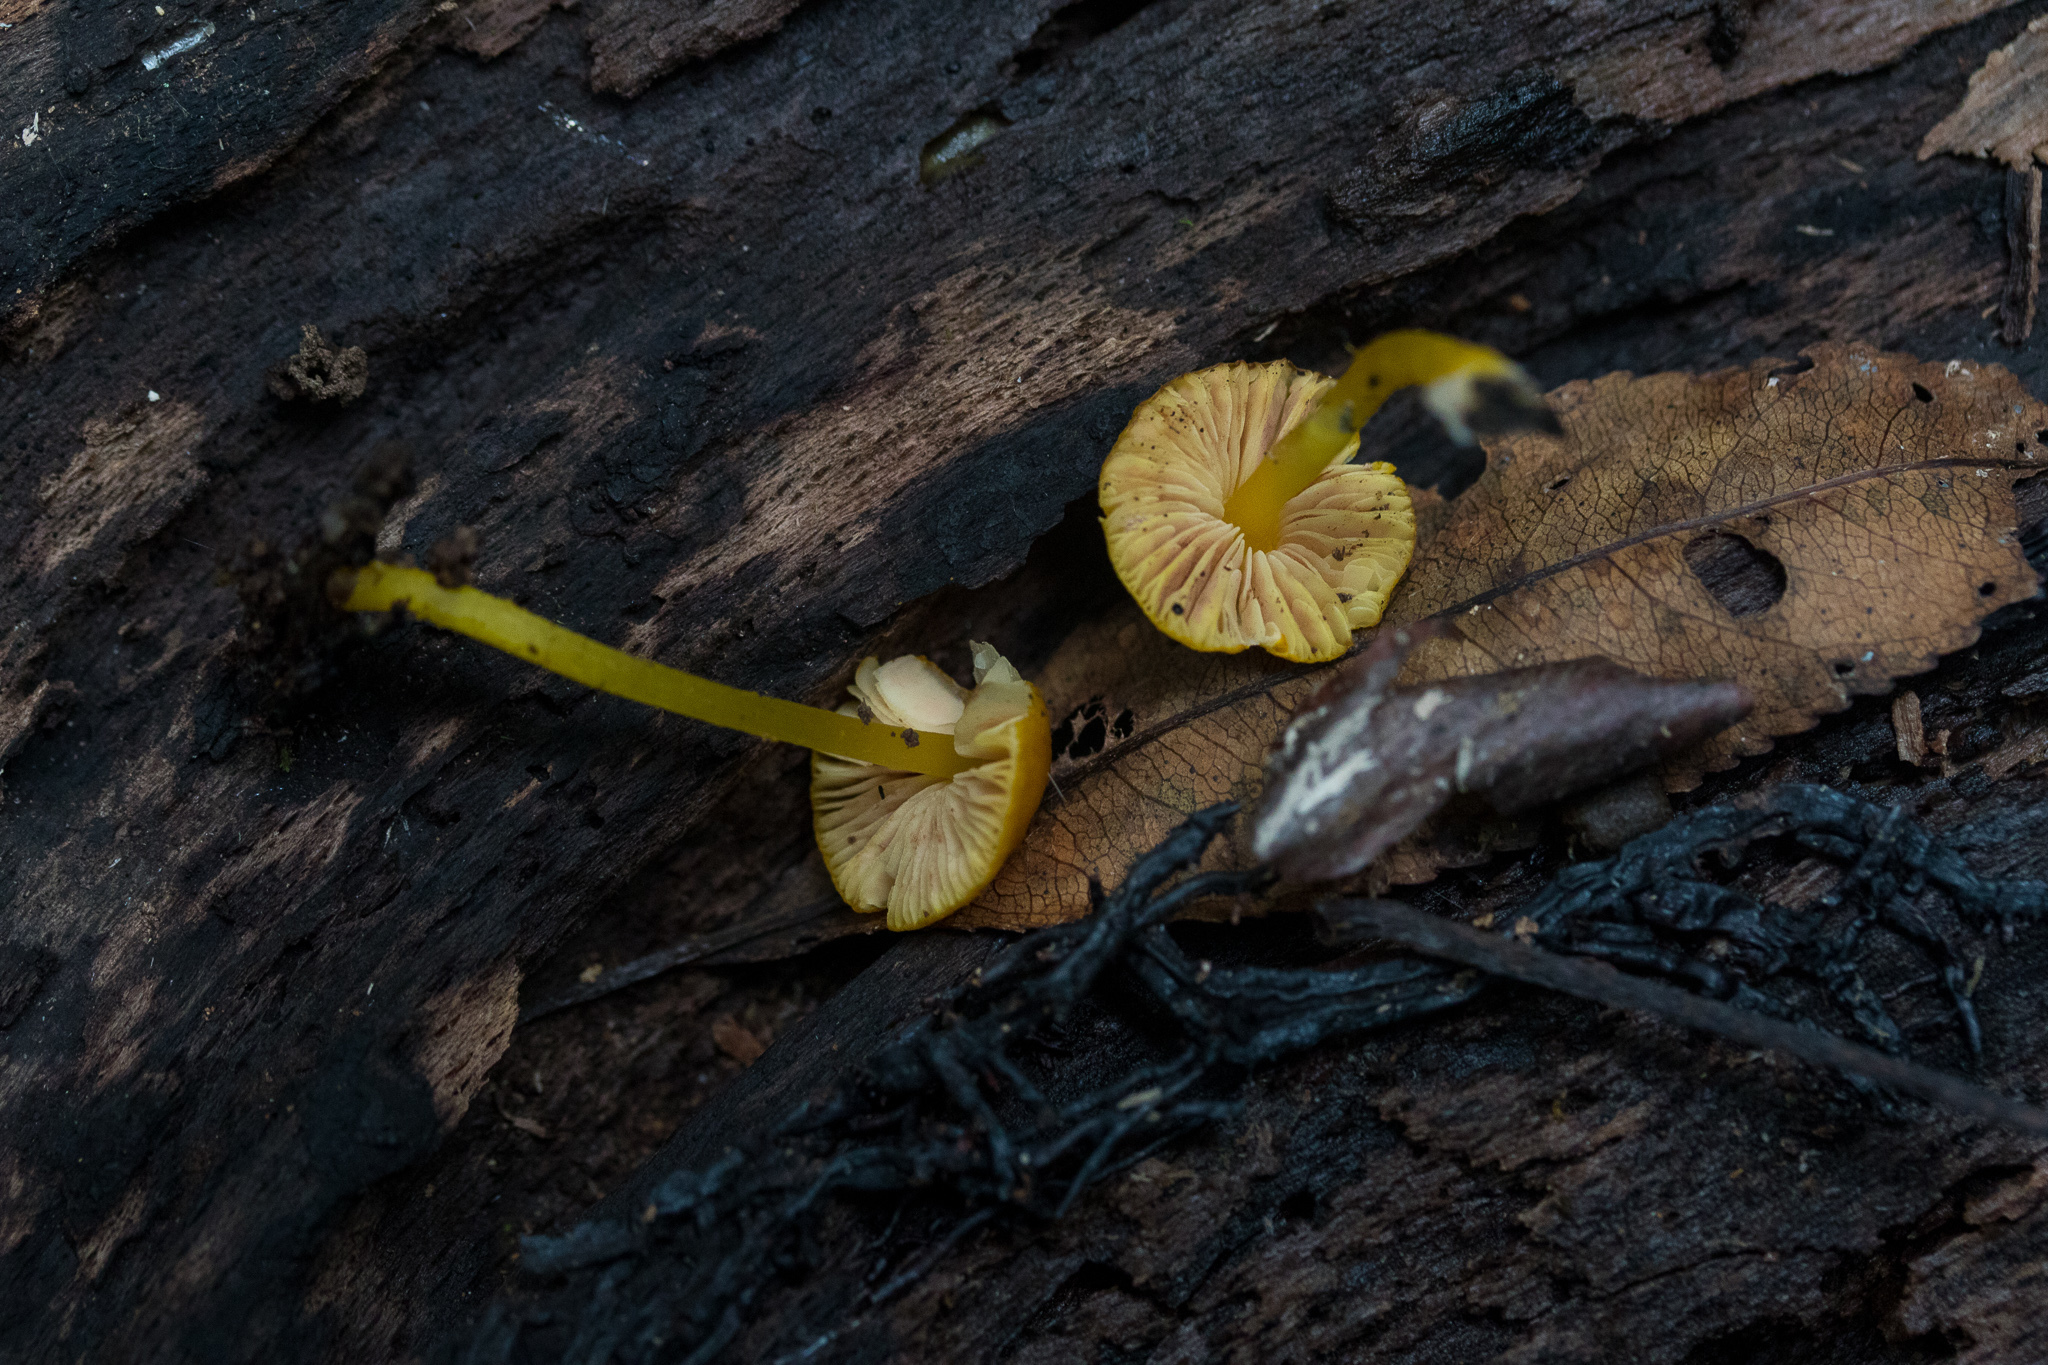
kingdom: Fungi
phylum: Basidiomycota
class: Agaricomycetes
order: Agaricales
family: Pluteaceae
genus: Pluteus
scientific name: Pluteus chrysophlebius
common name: Yellow deer mushroom
